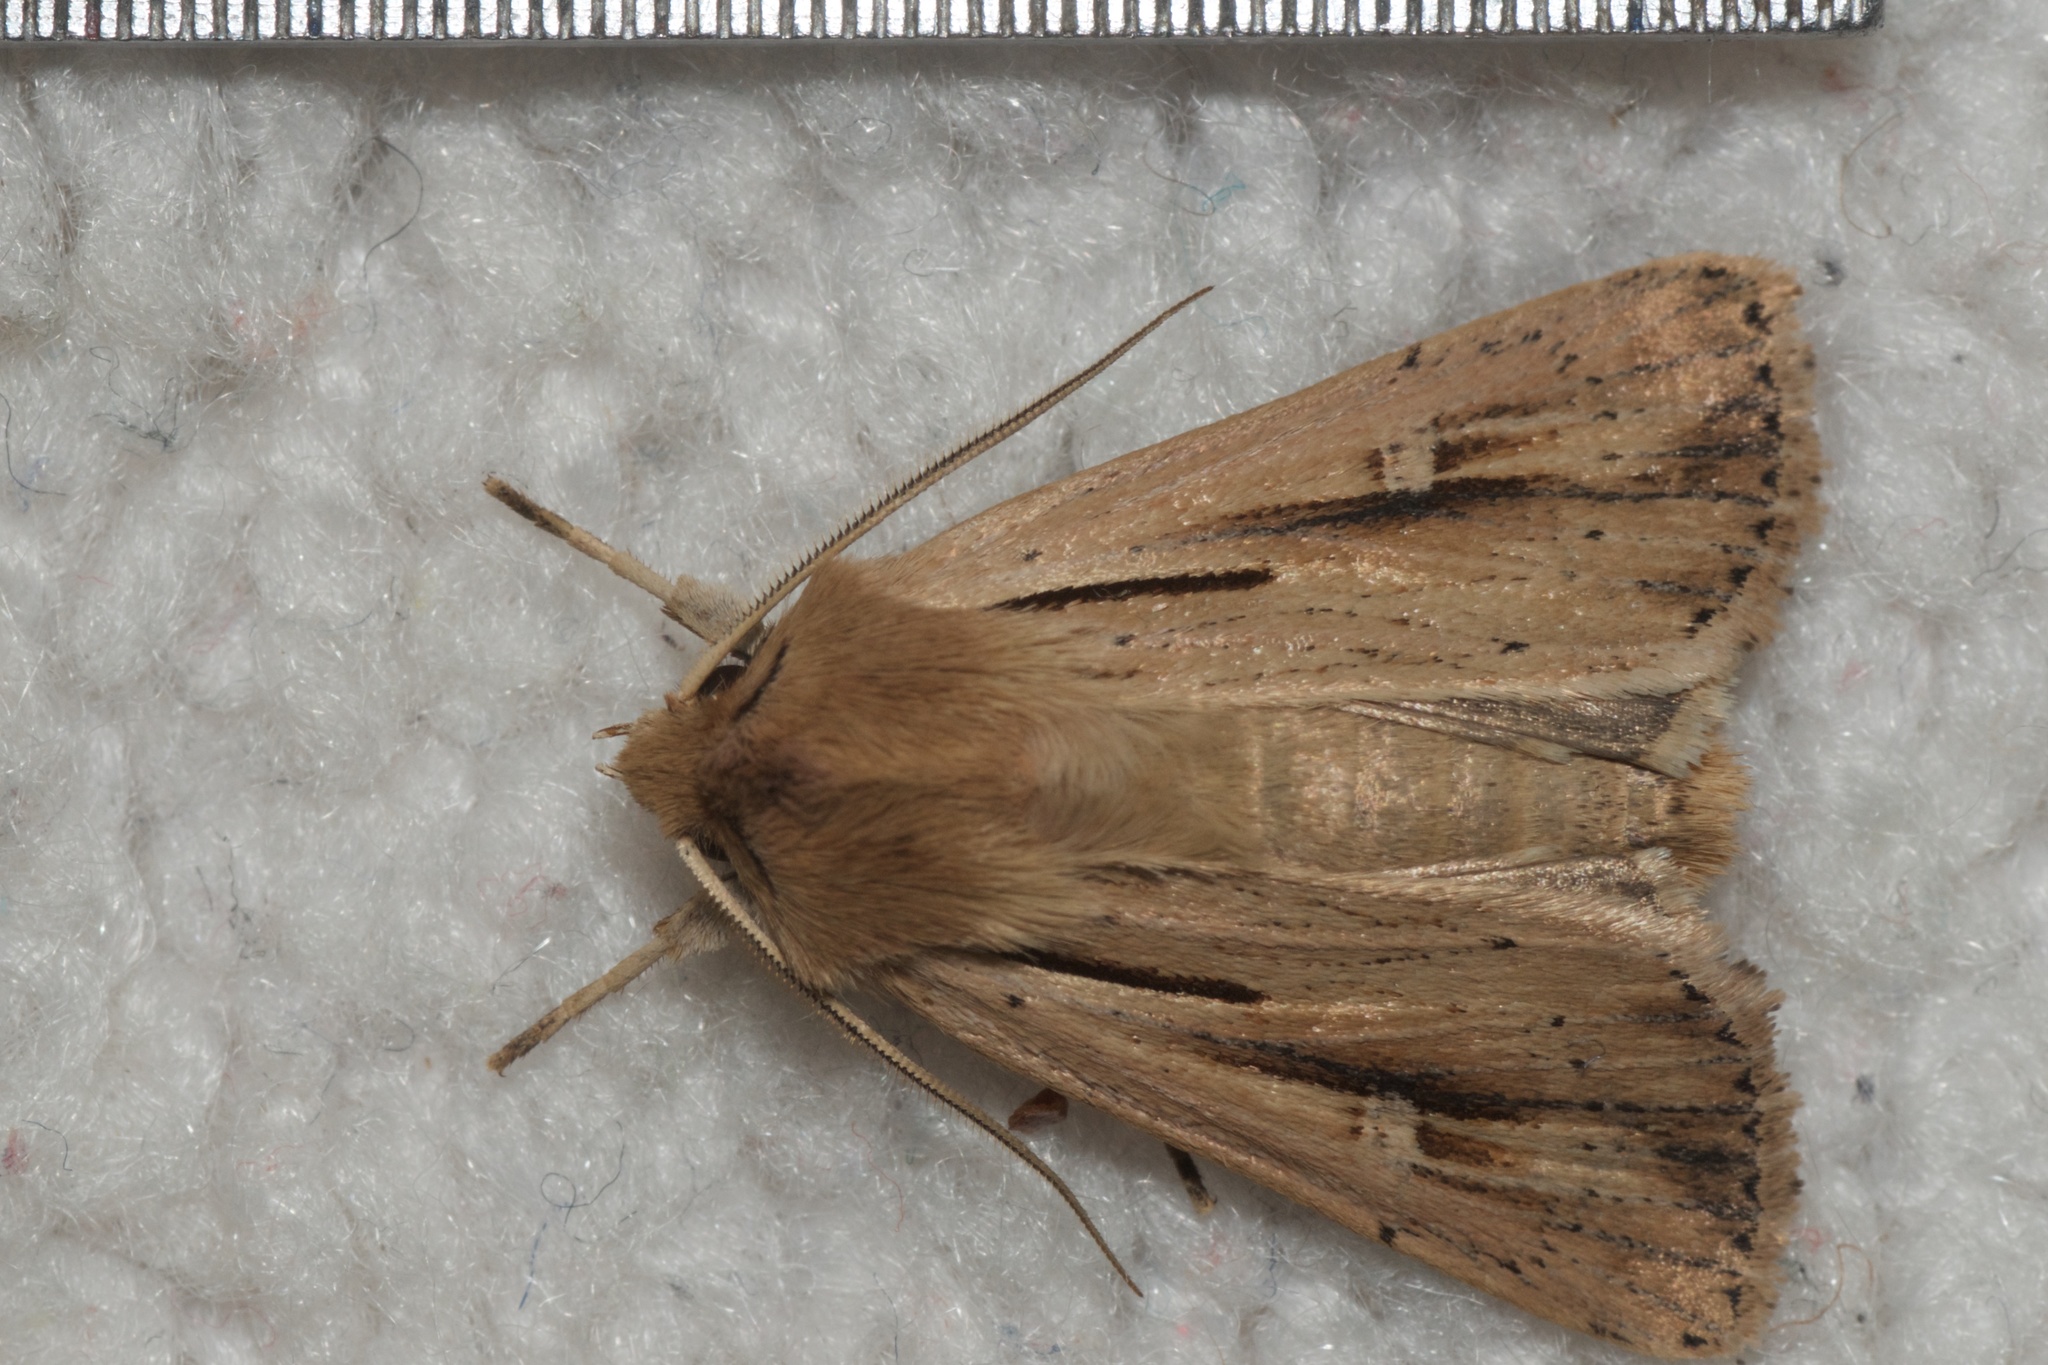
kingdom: Animalia
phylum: Arthropoda
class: Insecta
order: Lepidoptera
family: Noctuidae
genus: Ichneutica
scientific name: Ichneutica propria
